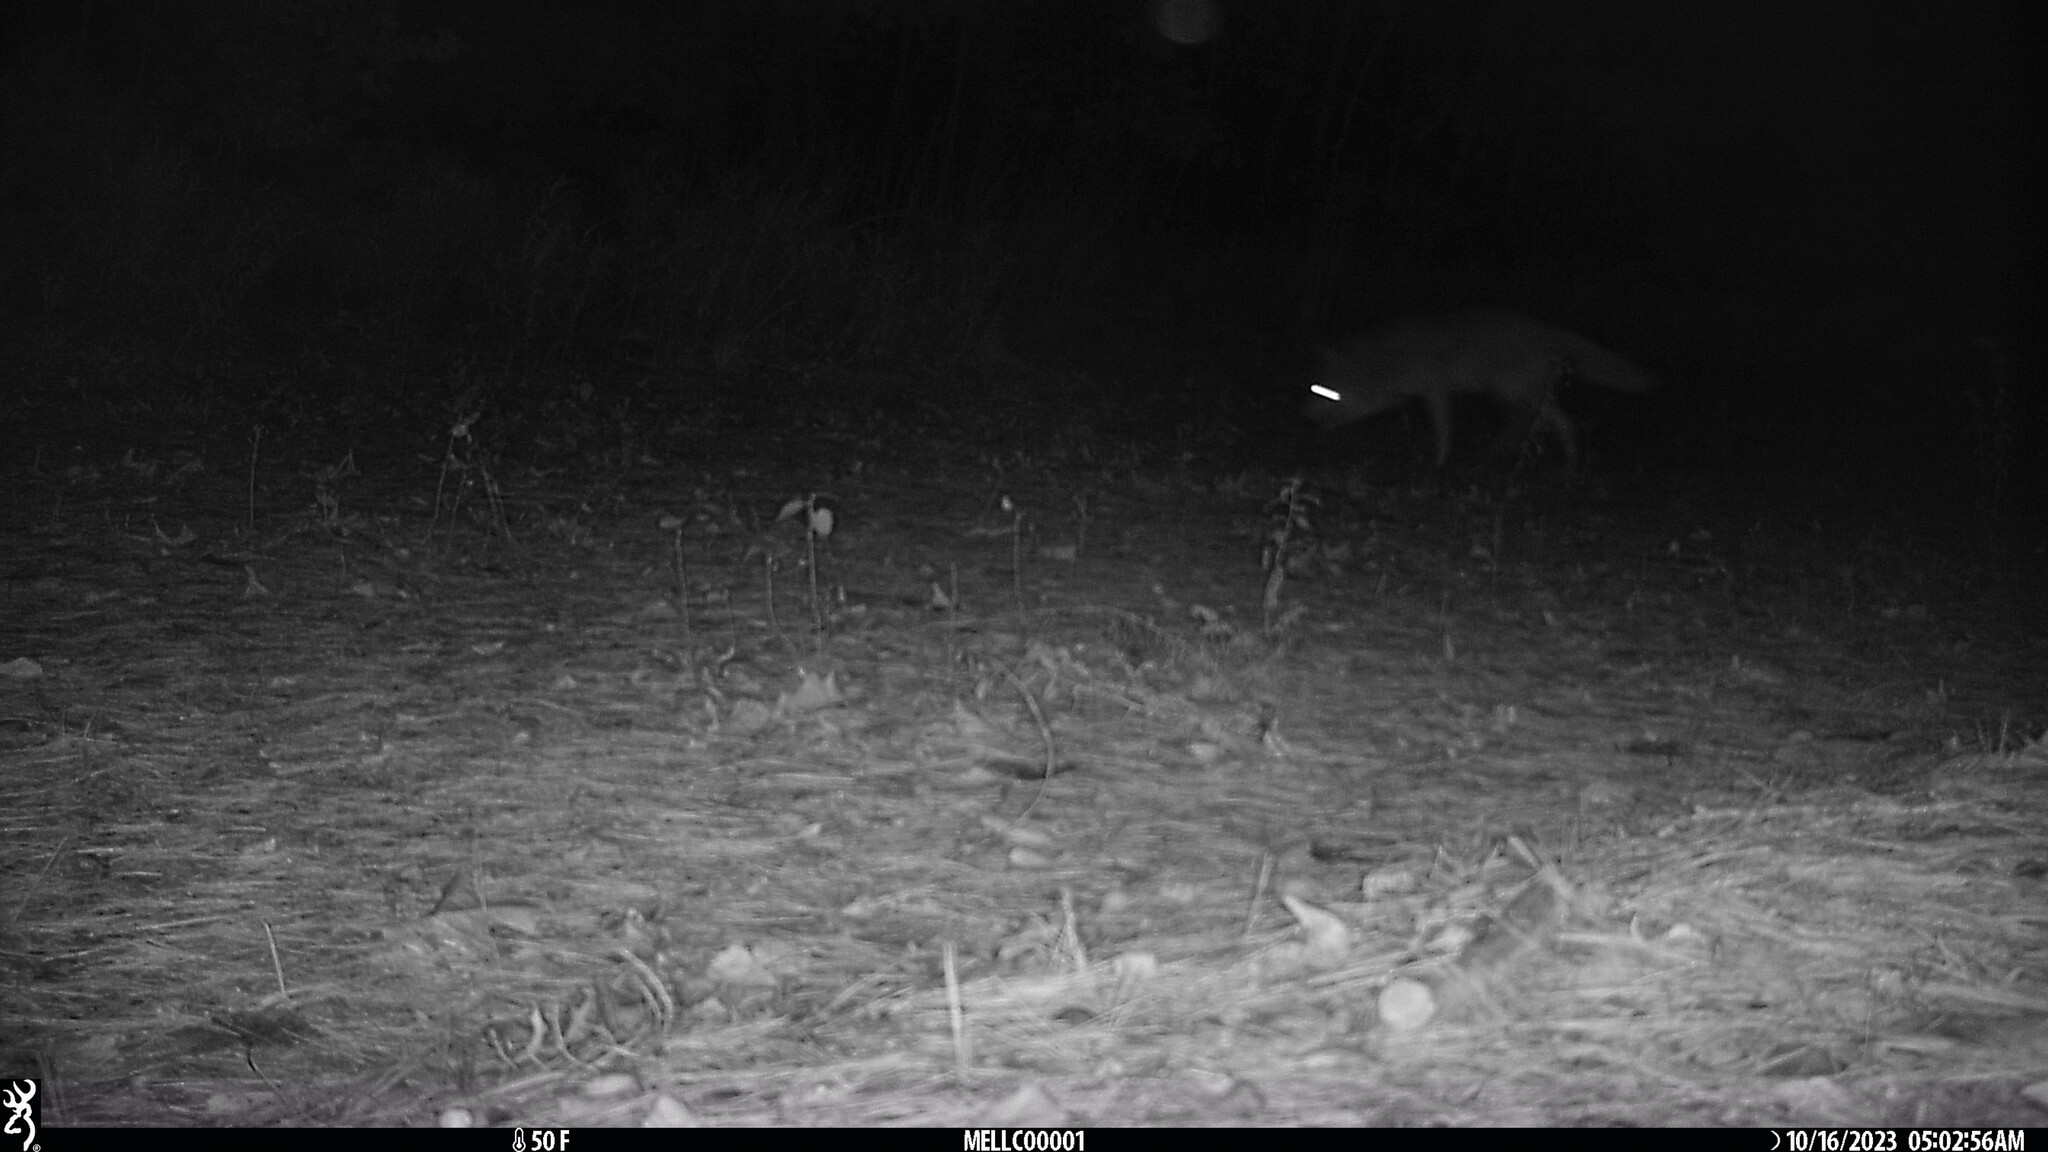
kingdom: Animalia
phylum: Chordata
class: Mammalia
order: Carnivora
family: Canidae
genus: Canis
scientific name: Canis latrans
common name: Coyote
